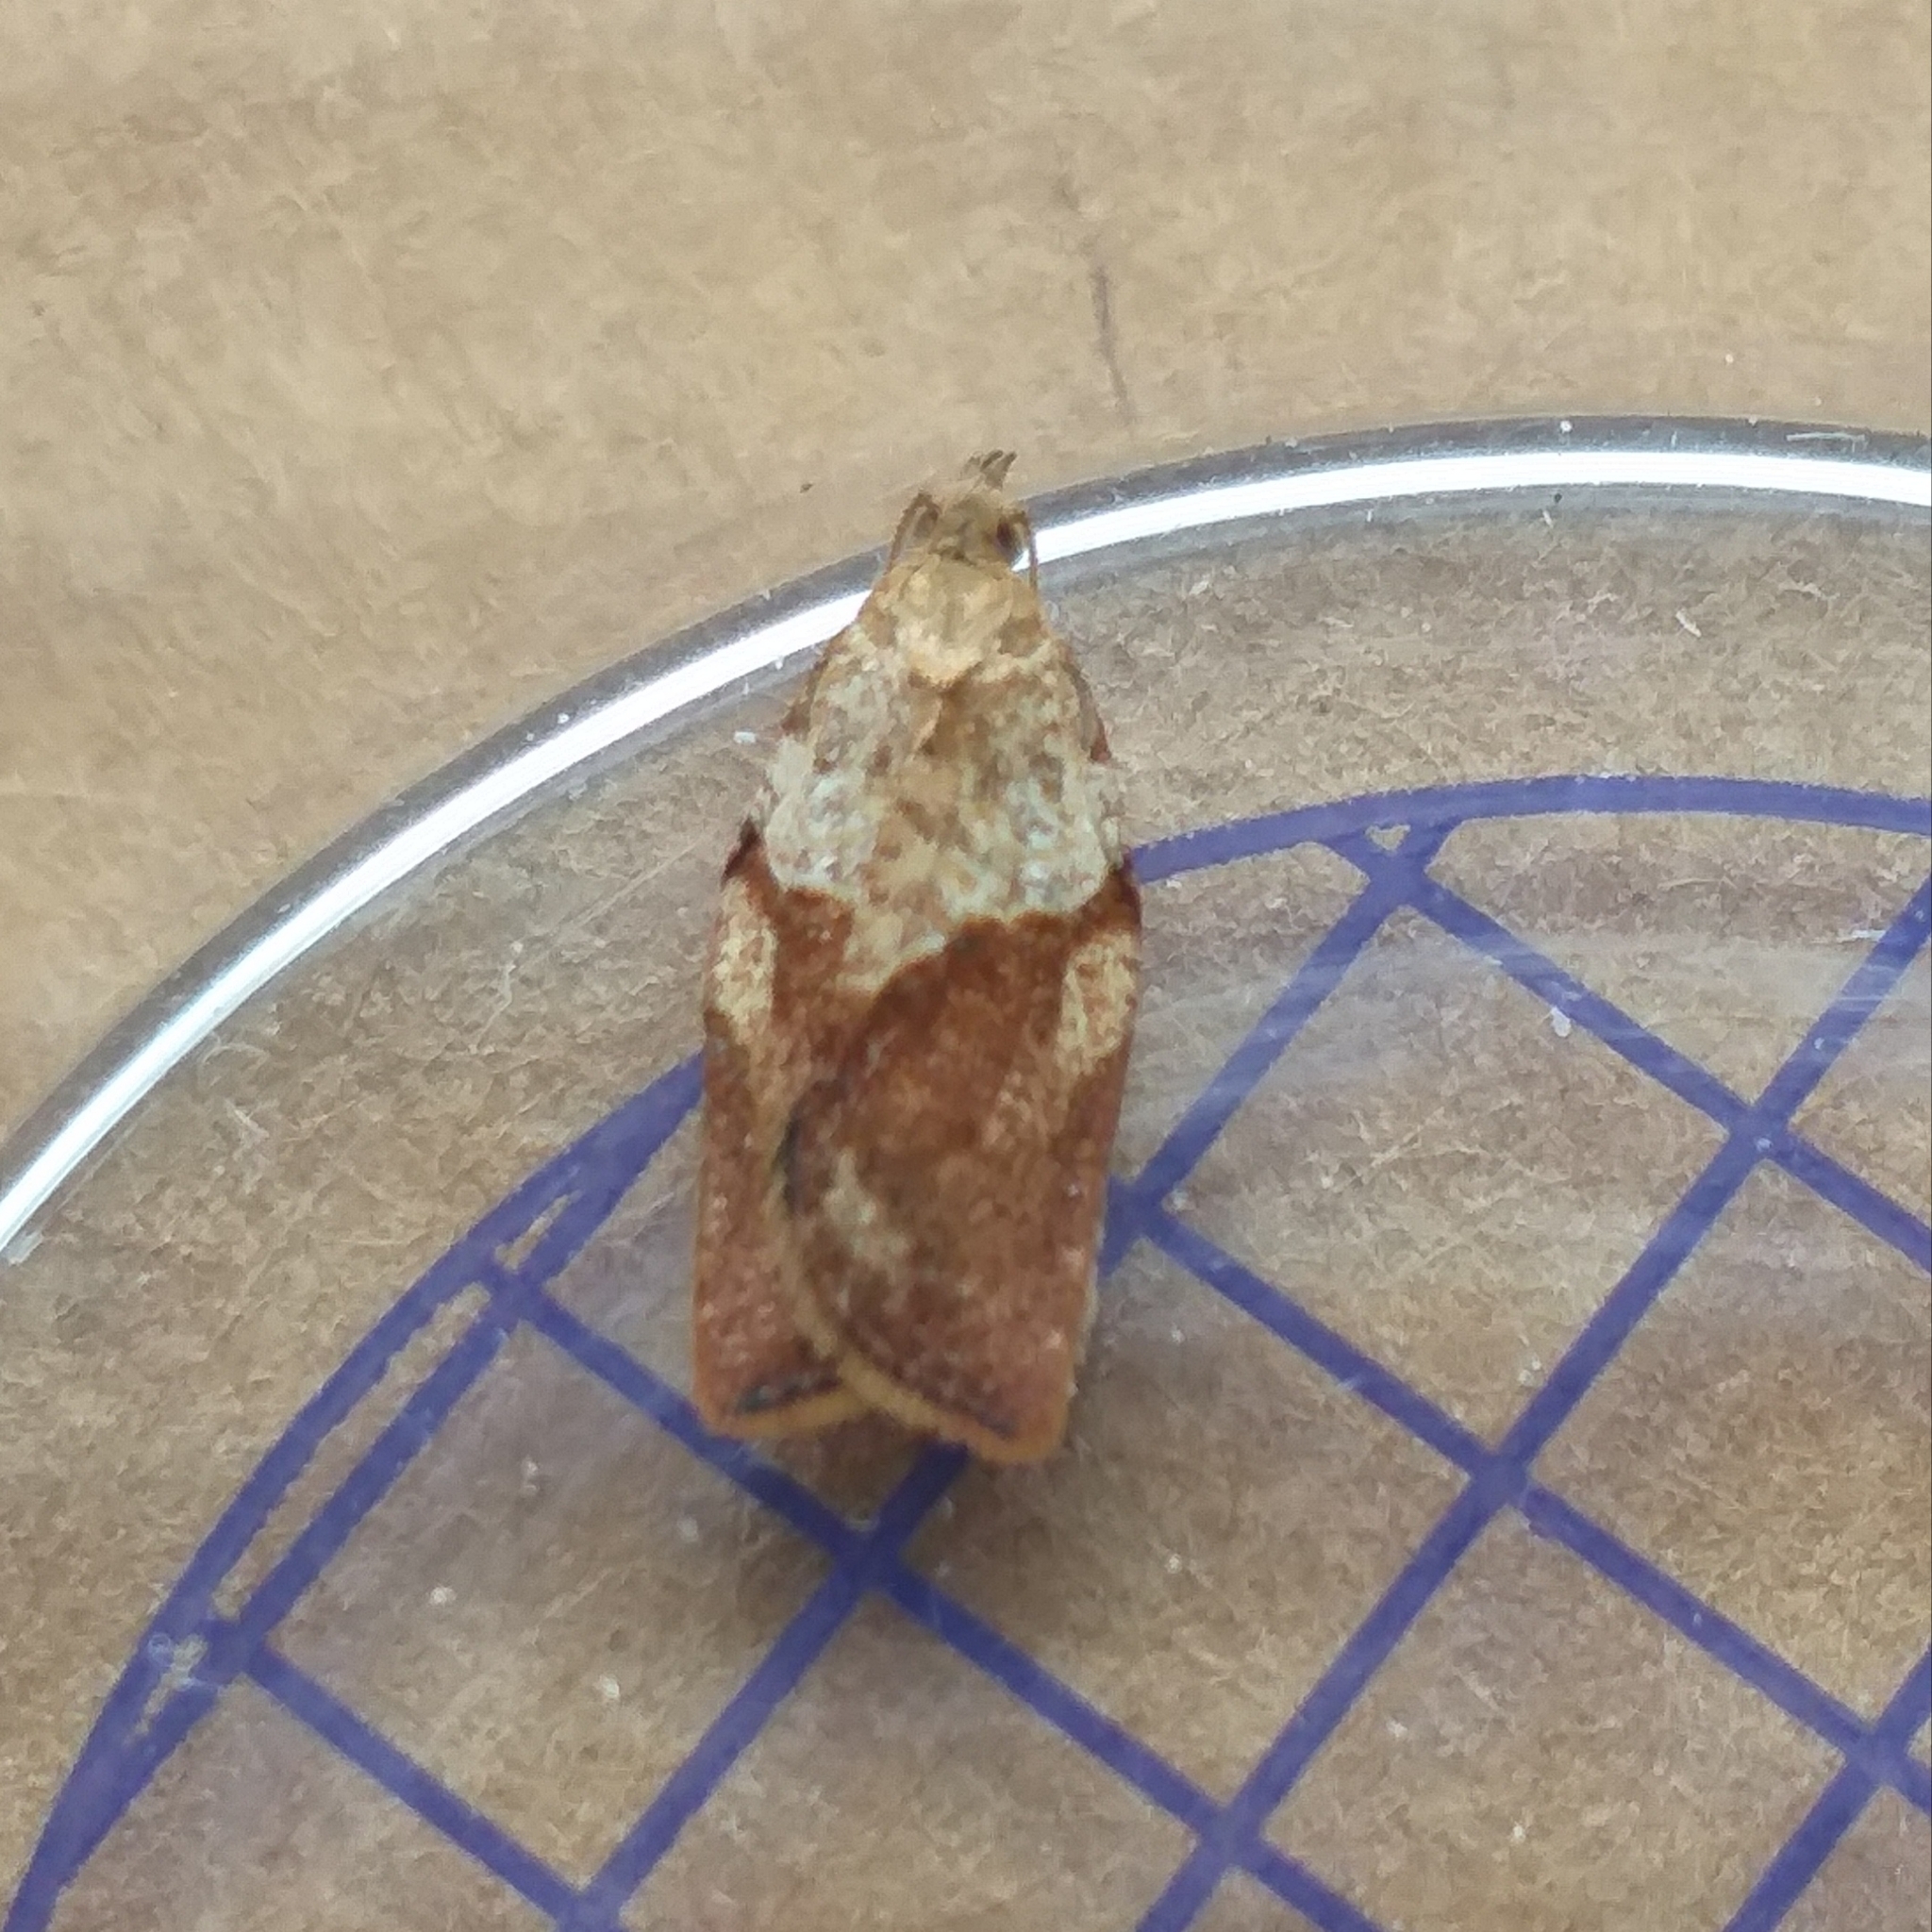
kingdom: Animalia
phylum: Arthropoda
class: Insecta
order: Lepidoptera
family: Tortricidae
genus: Epiphyas
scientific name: Epiphyas postvittana
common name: Light brown apple moth
